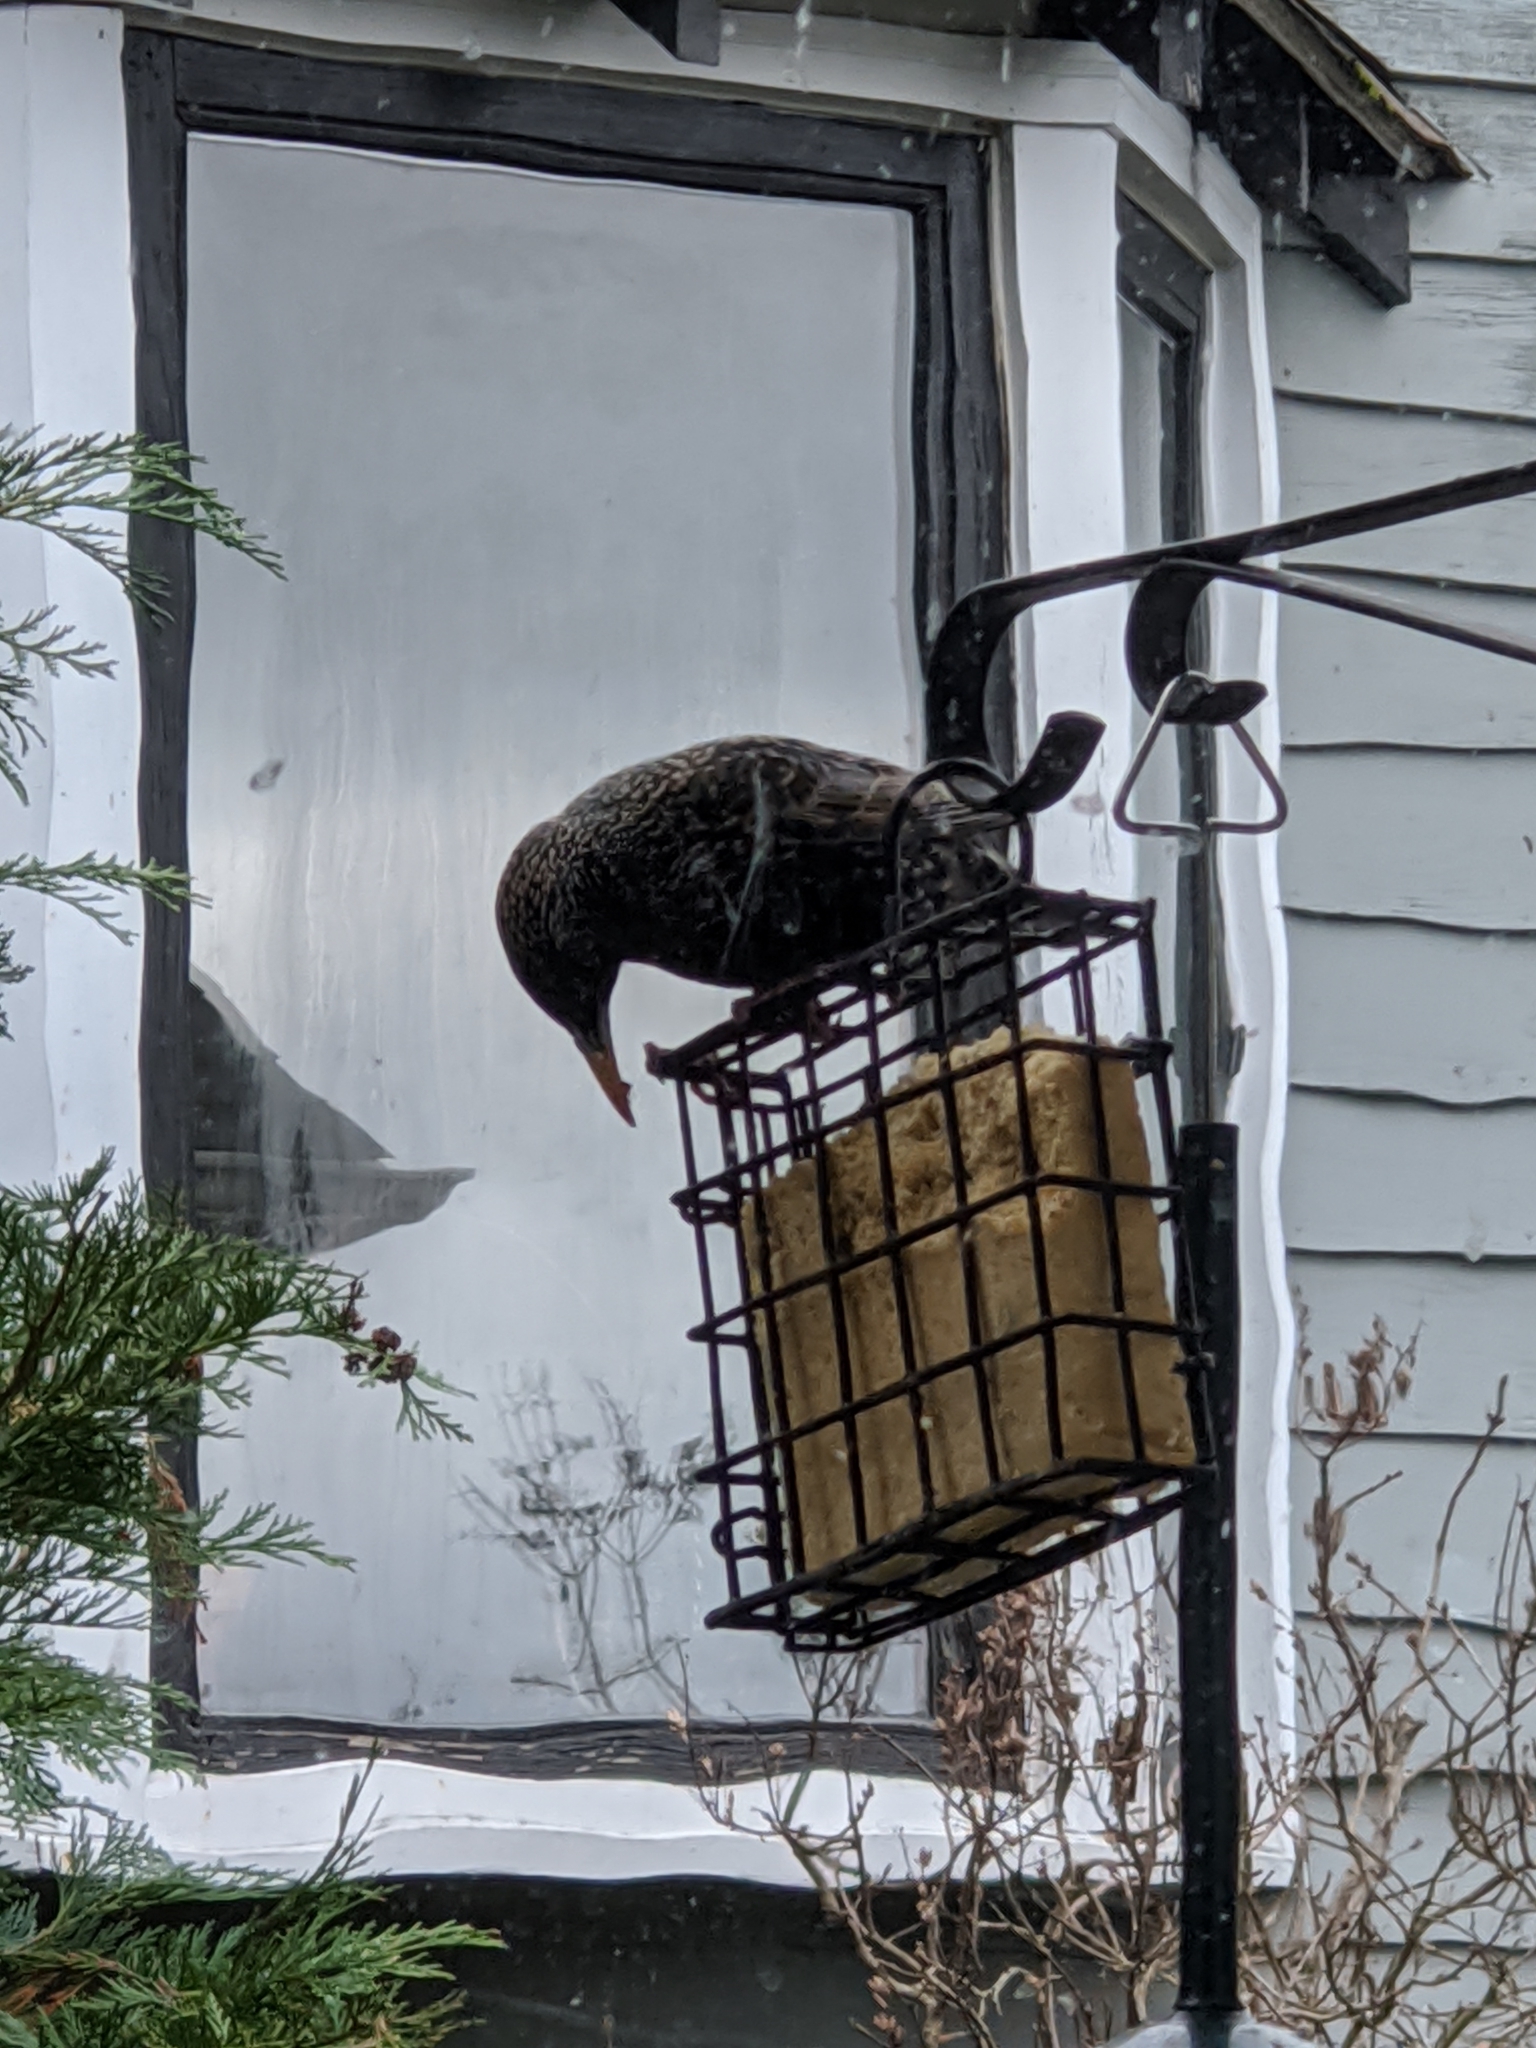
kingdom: Animalia
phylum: Chordata
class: Aves
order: Passeriformes
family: Sturnidae
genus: Sturnus
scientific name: Sturnus vulgaris
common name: Common starling
